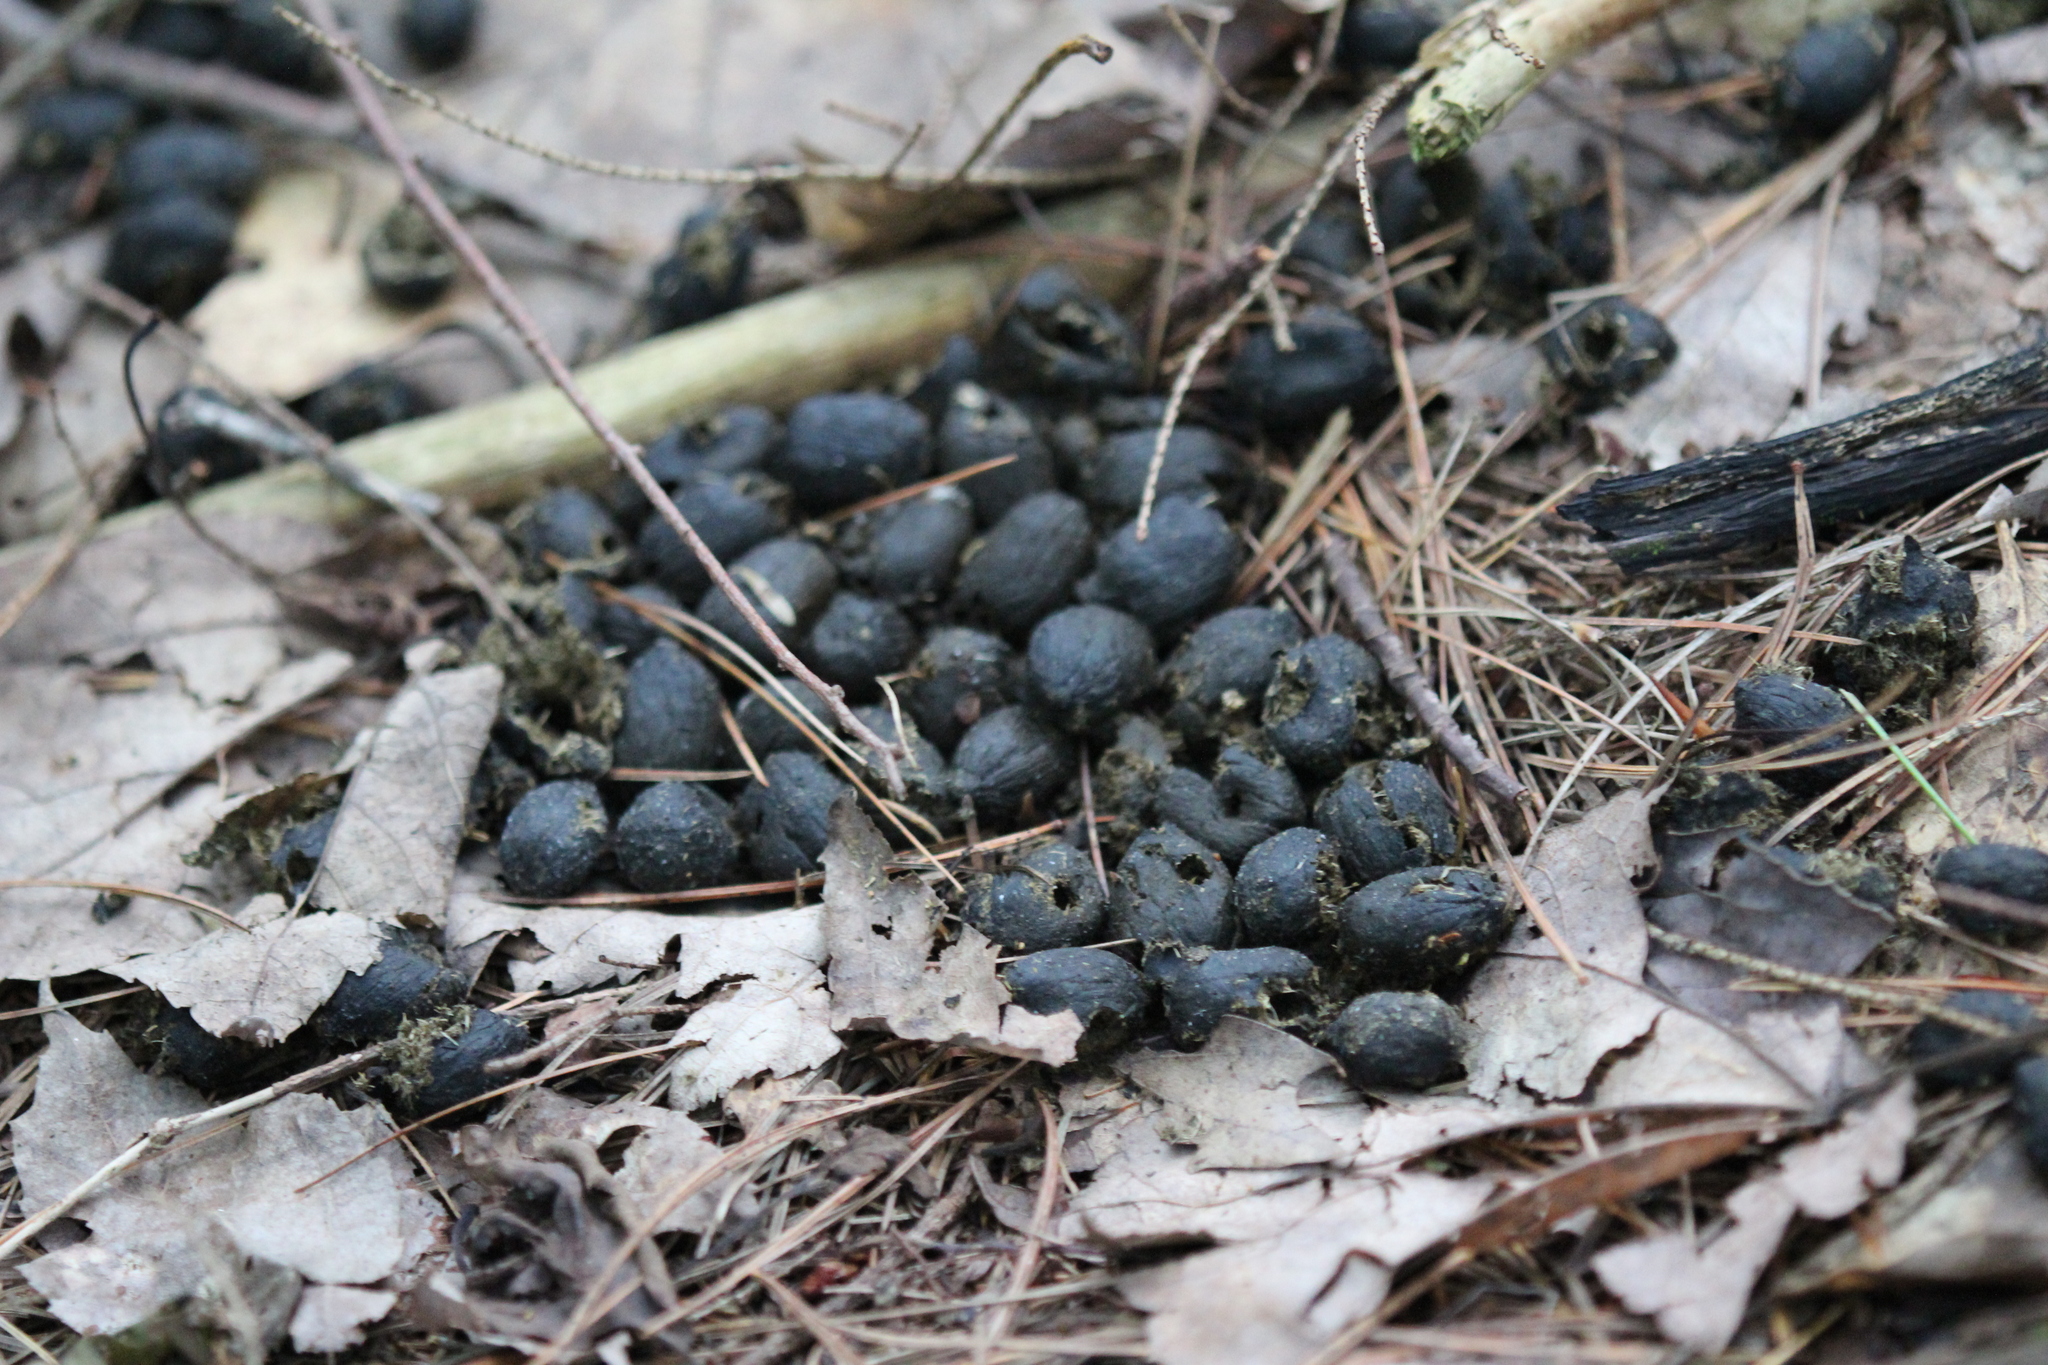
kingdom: Animalia
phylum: Chordata
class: Mammalia
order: Artiodactyla
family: Cervidae
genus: Odocoileus
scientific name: Odocoileus virginianus
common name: White-tailed deer
